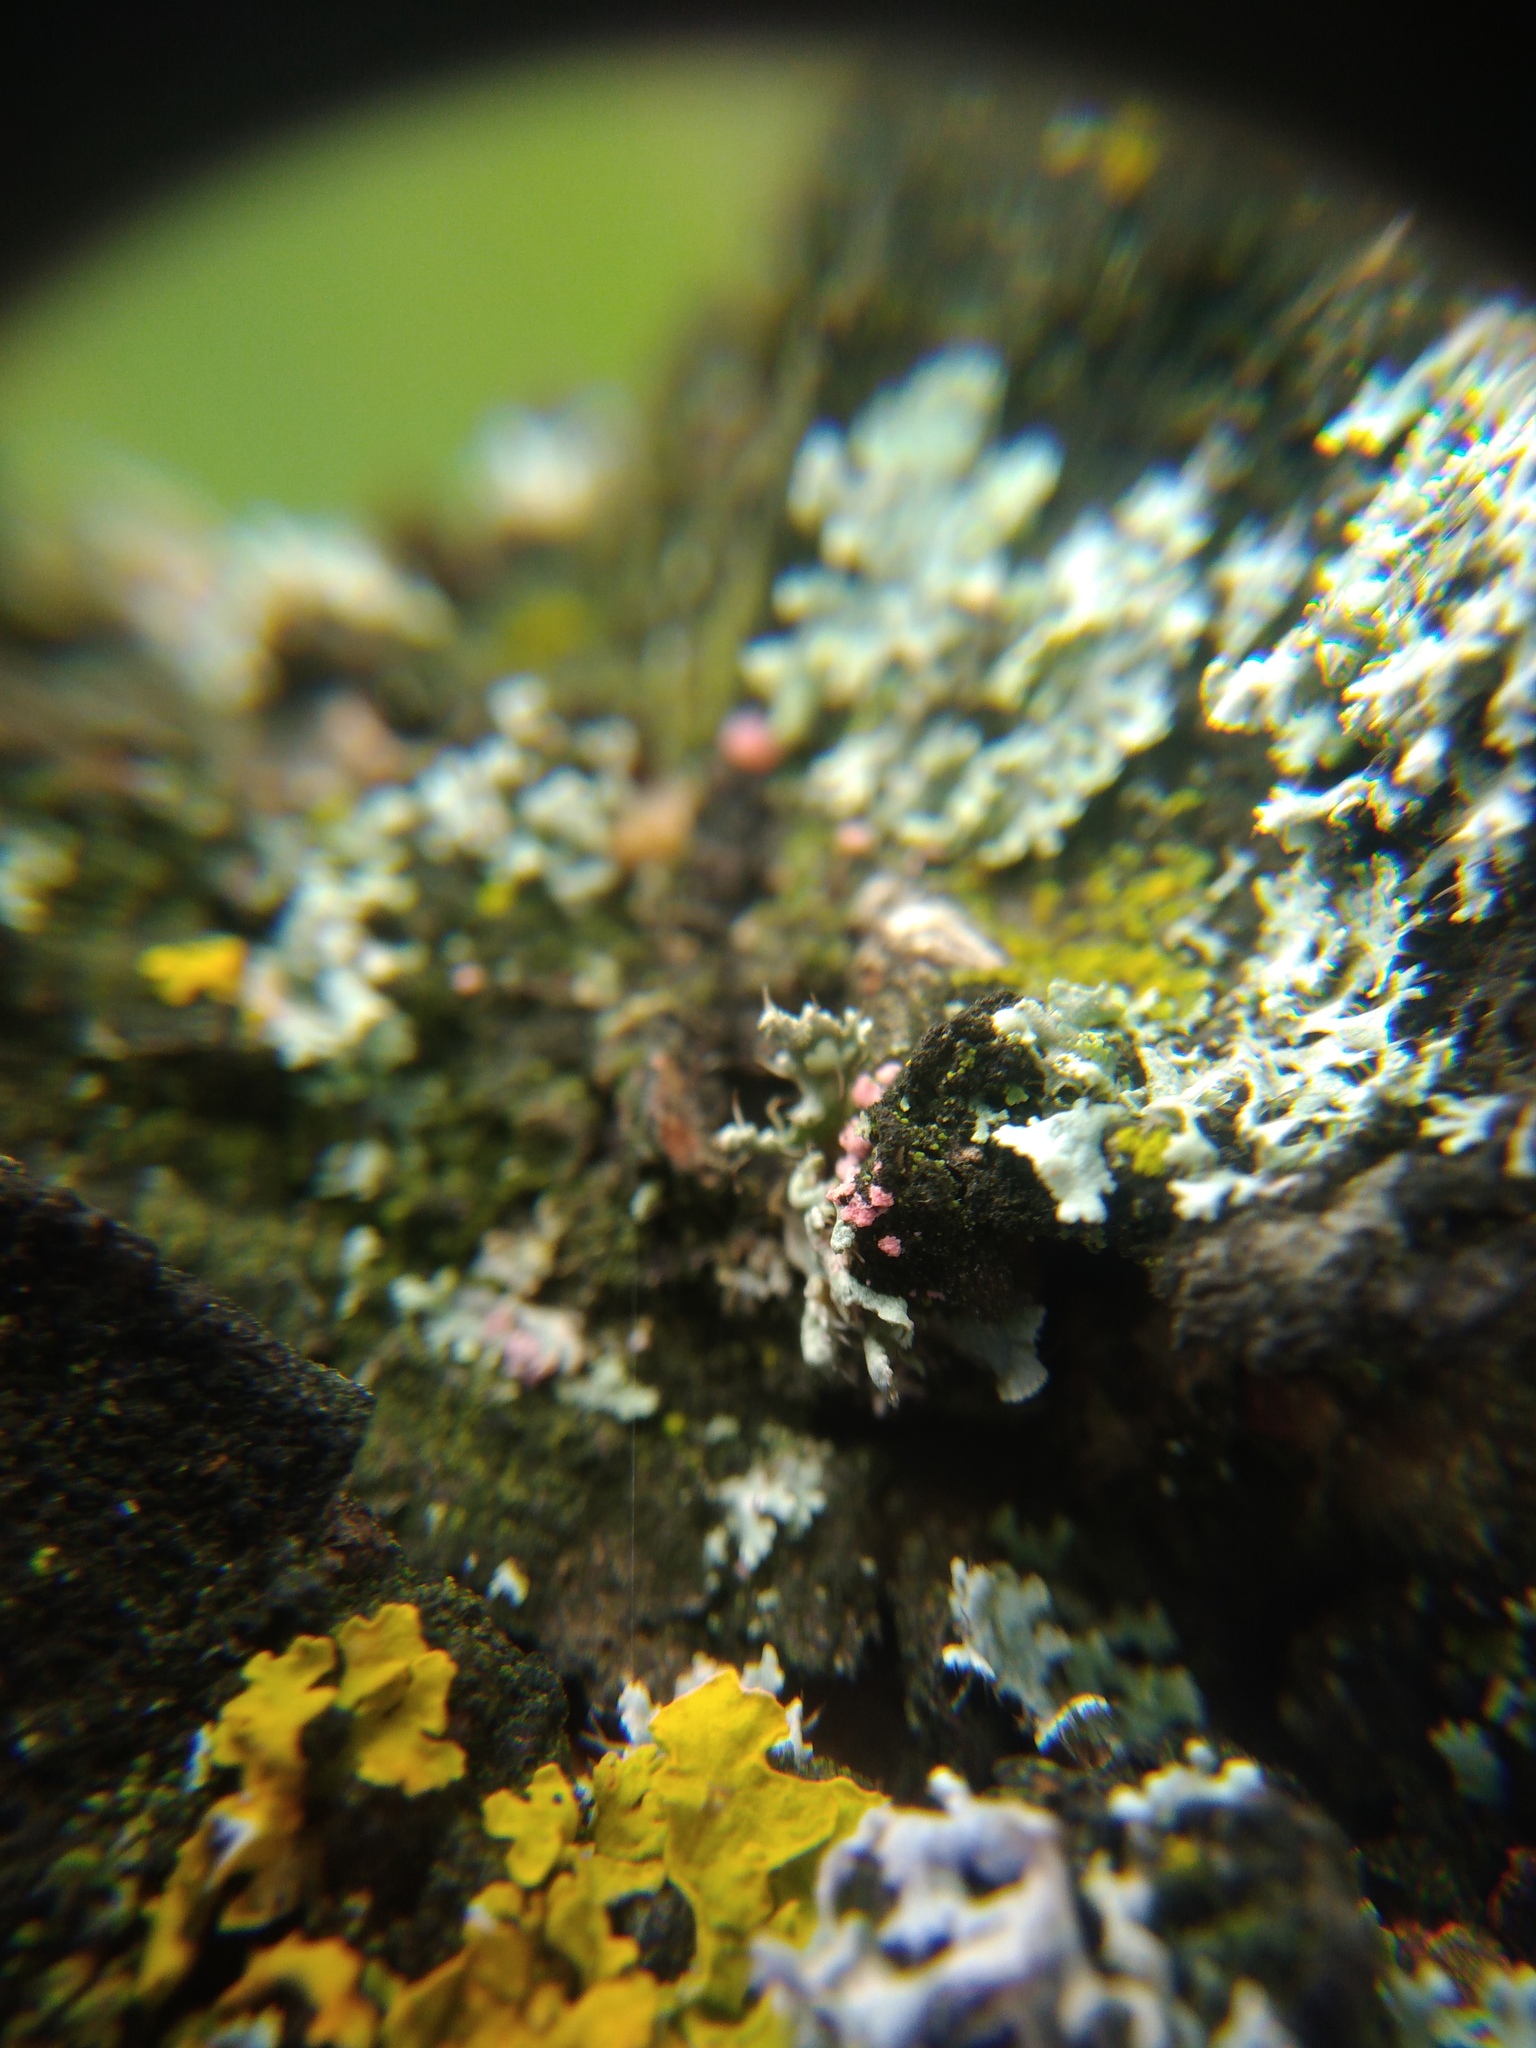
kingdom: Fungi
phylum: Ascomycota
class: Sordariomycetes
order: Hypocreales
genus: Illosporiopsis
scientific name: Illosporiopsis christiansenii
